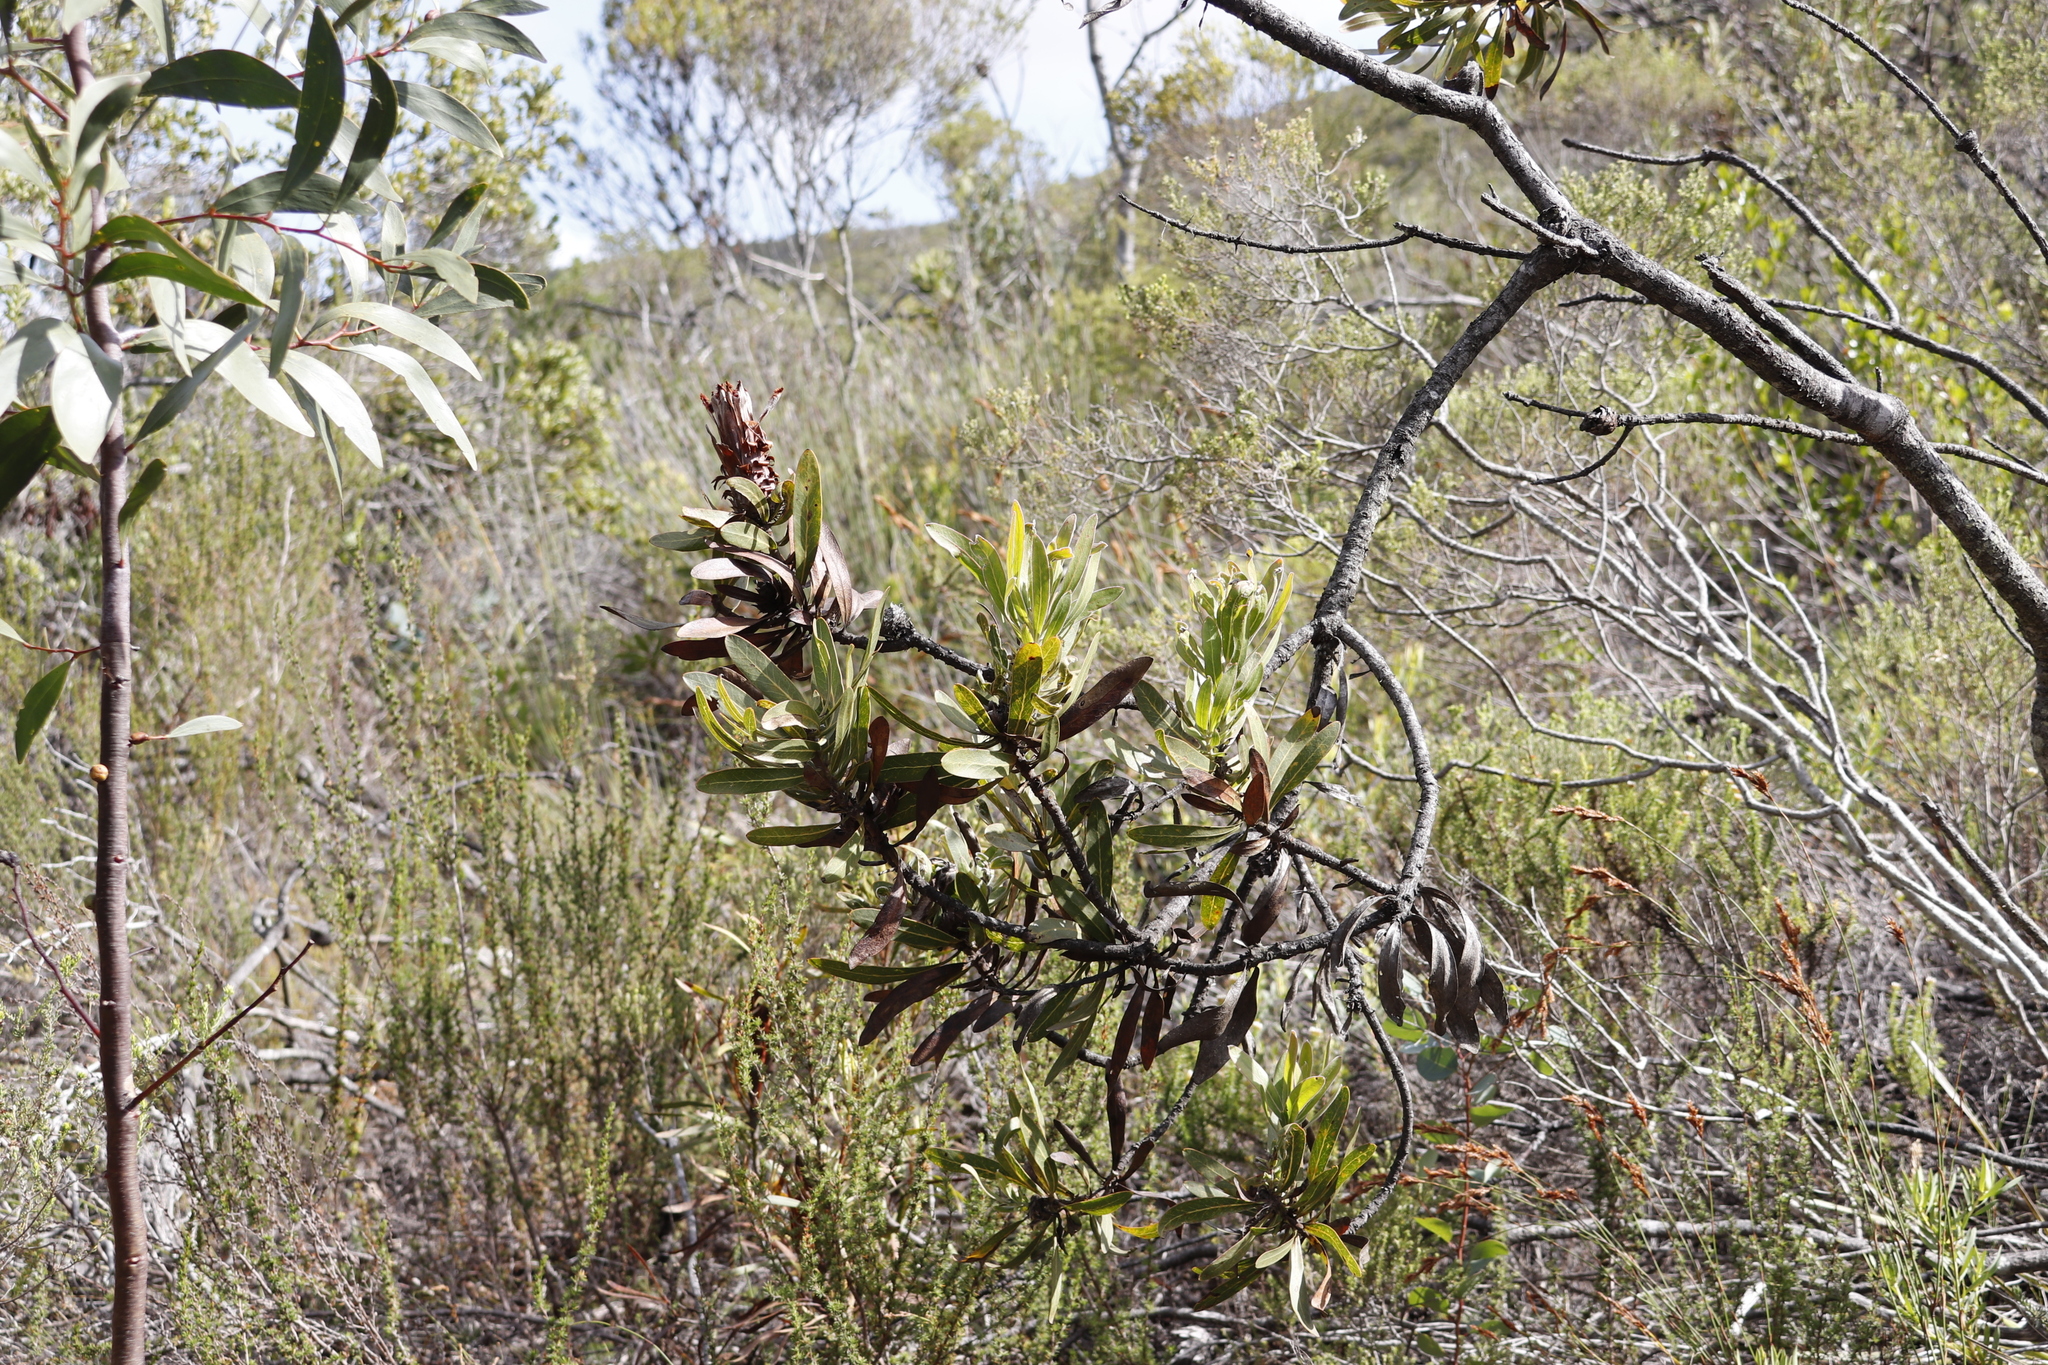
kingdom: Plantae
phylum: Tracheophyta
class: Magnoliopsida
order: Proteales
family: Proteaceae
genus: Protea
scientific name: Protea neriifolia
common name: Blue sugarbush
